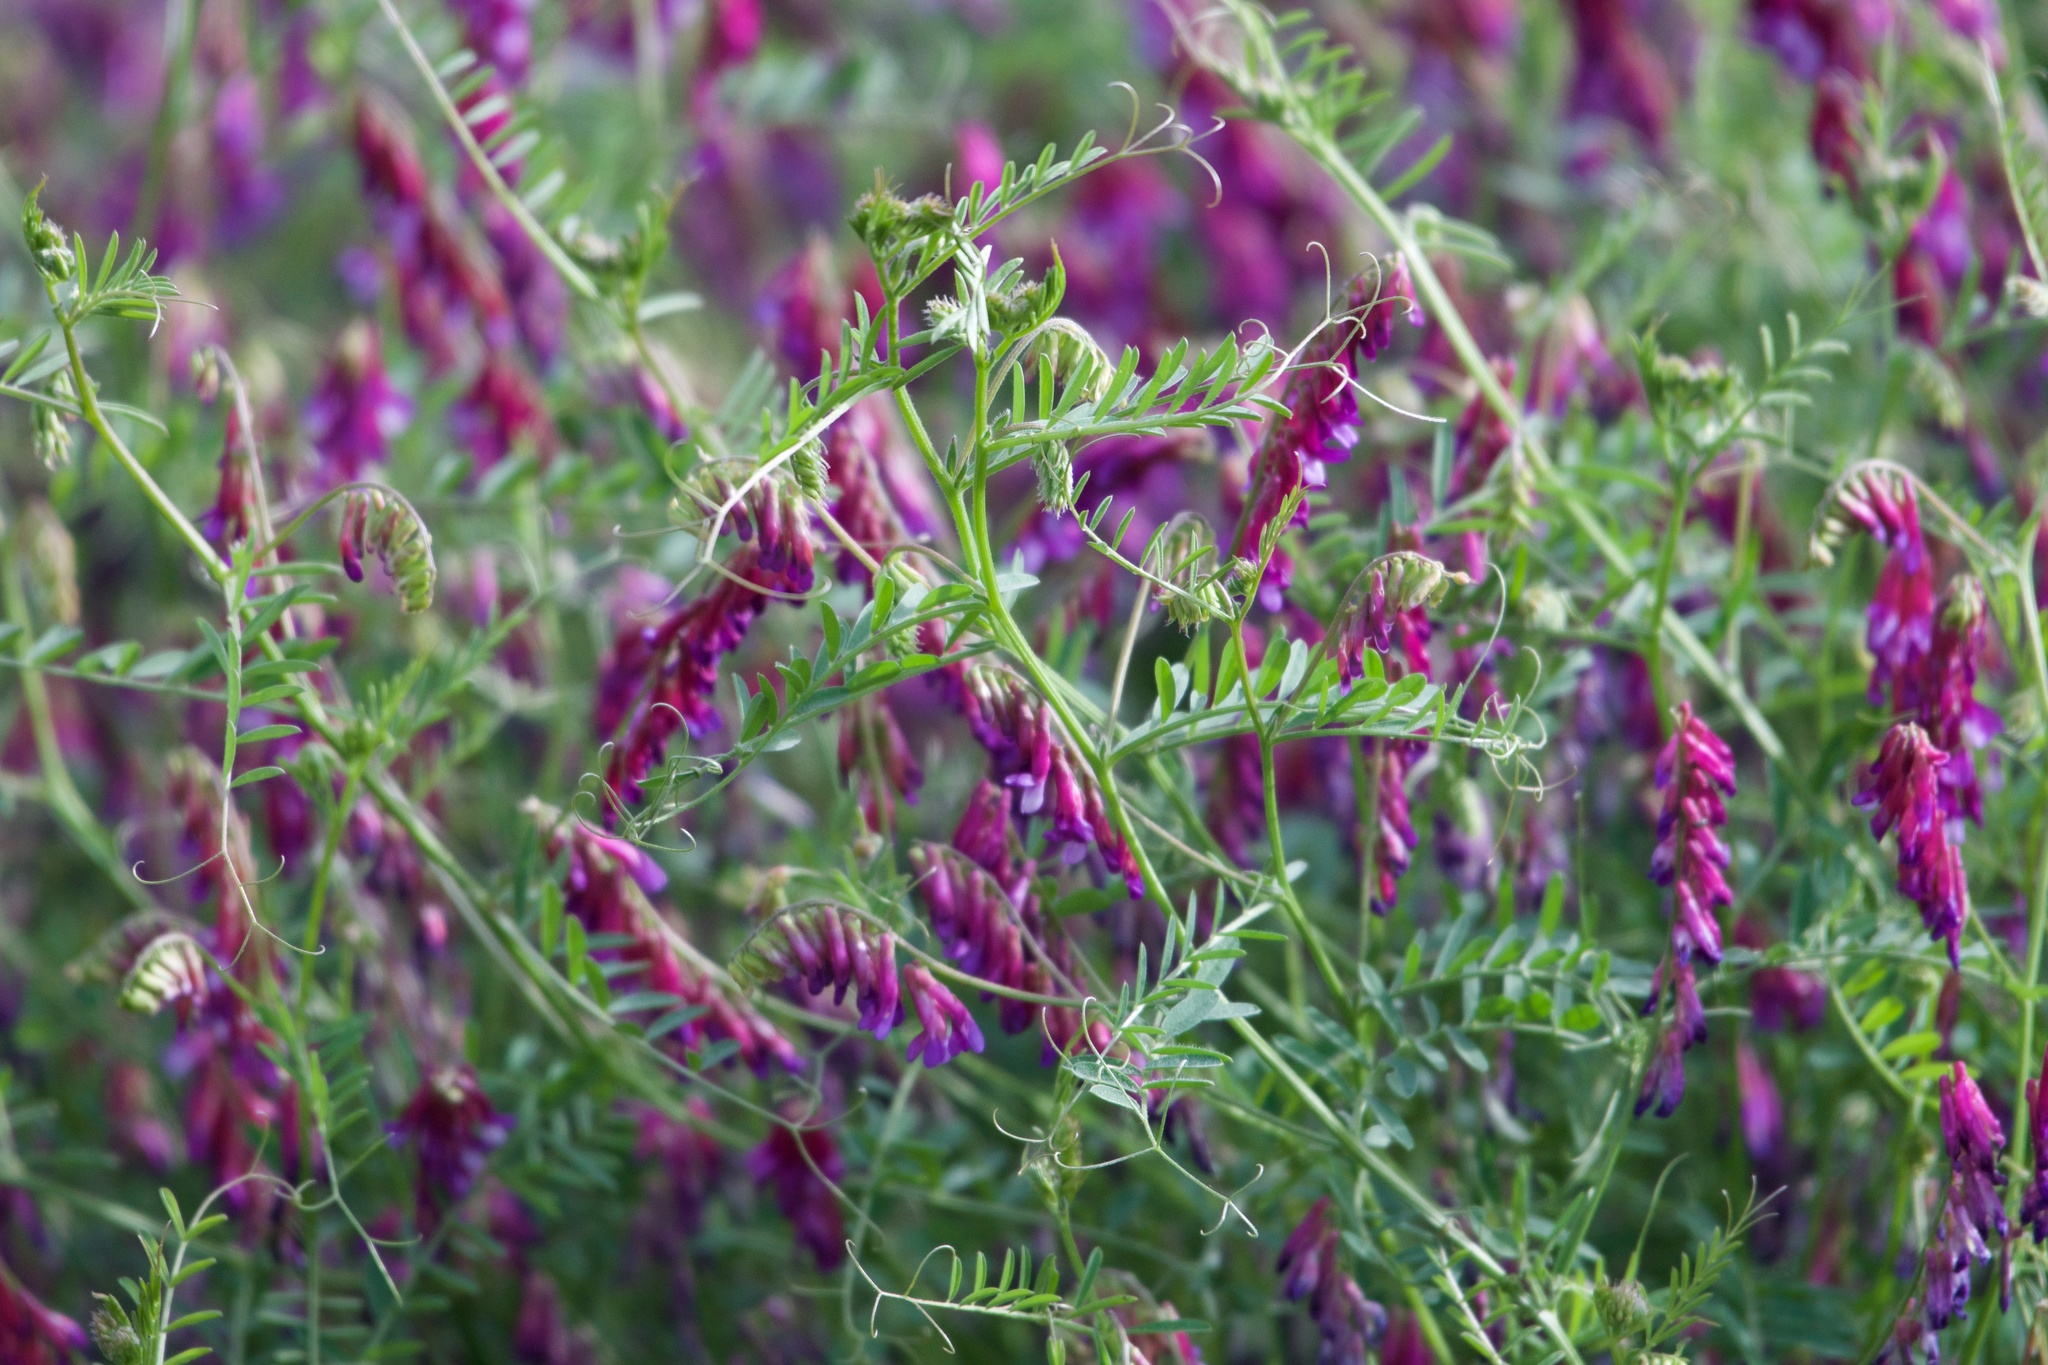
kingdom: Plantae
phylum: Tracheophyta
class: Magnoliopsida
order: Fabales
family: Fabaceae
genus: Vicia
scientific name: Vicia villosa
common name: Fodder vetch
